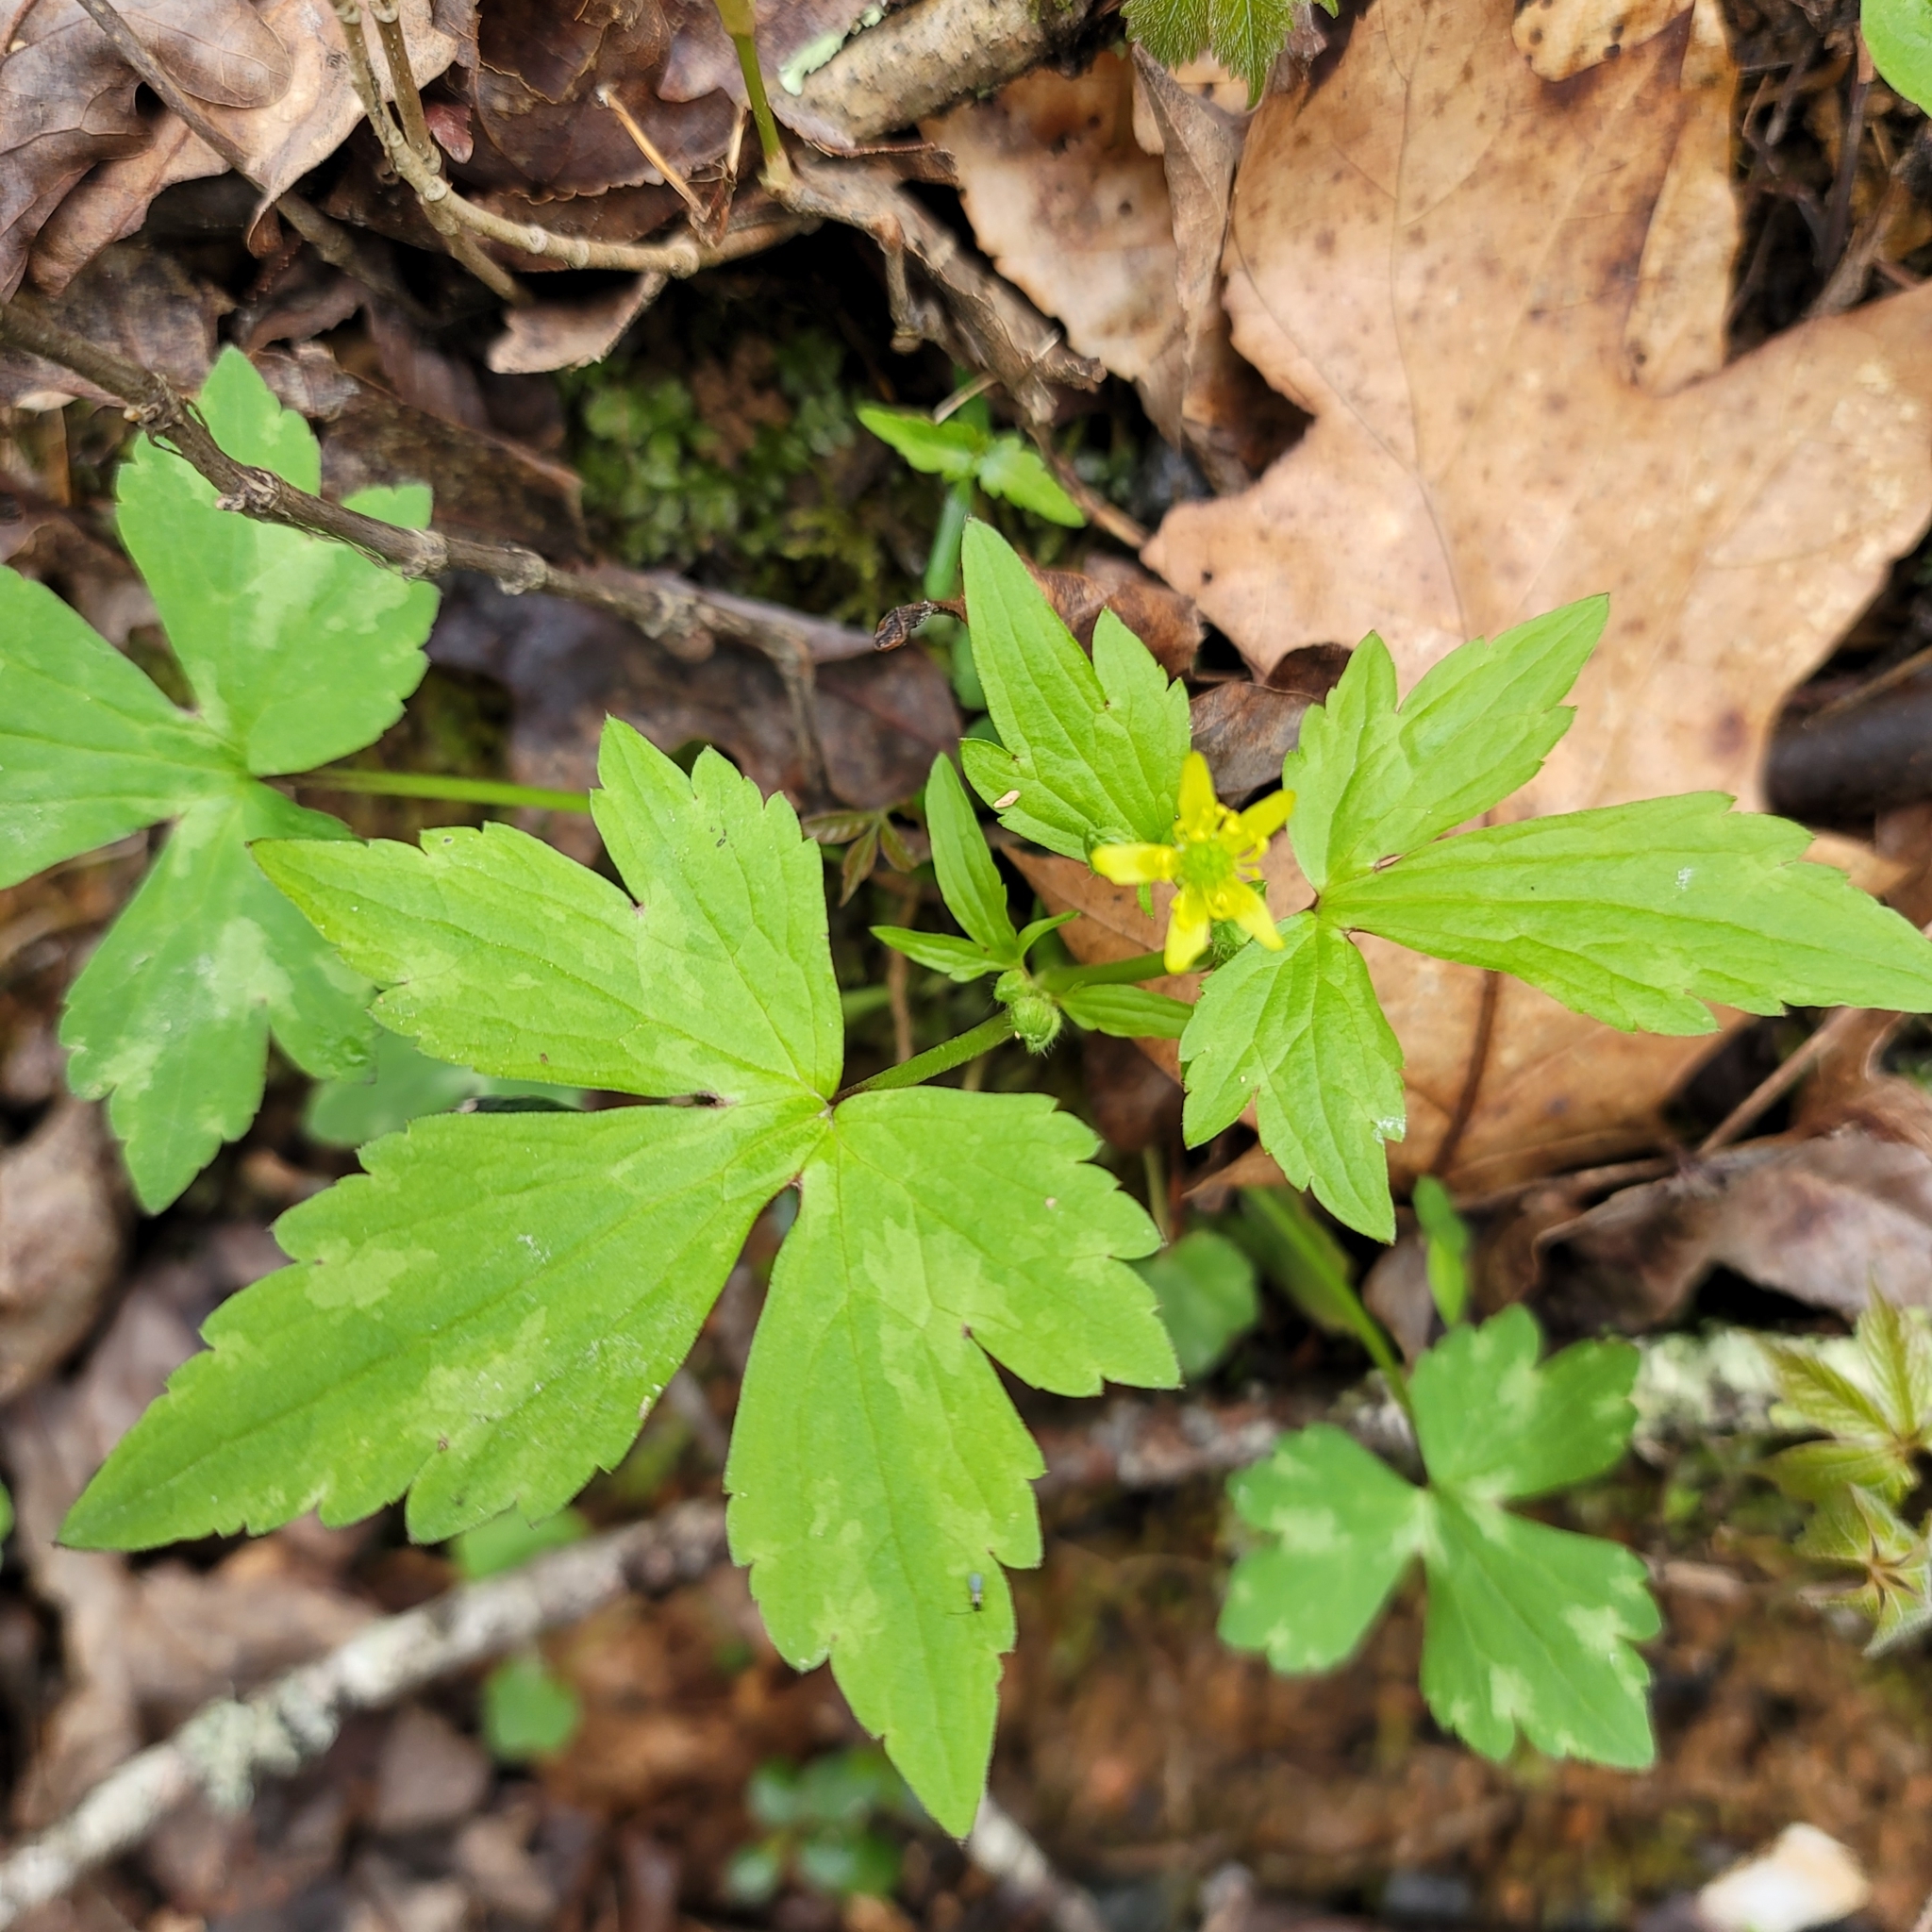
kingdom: Plantae
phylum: Tracheophyta
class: Magnoliopsida
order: Ranunculales
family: Ranunculaceae
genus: Ranunculus
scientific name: Ranunculus recurvatus
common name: Blisterwort
